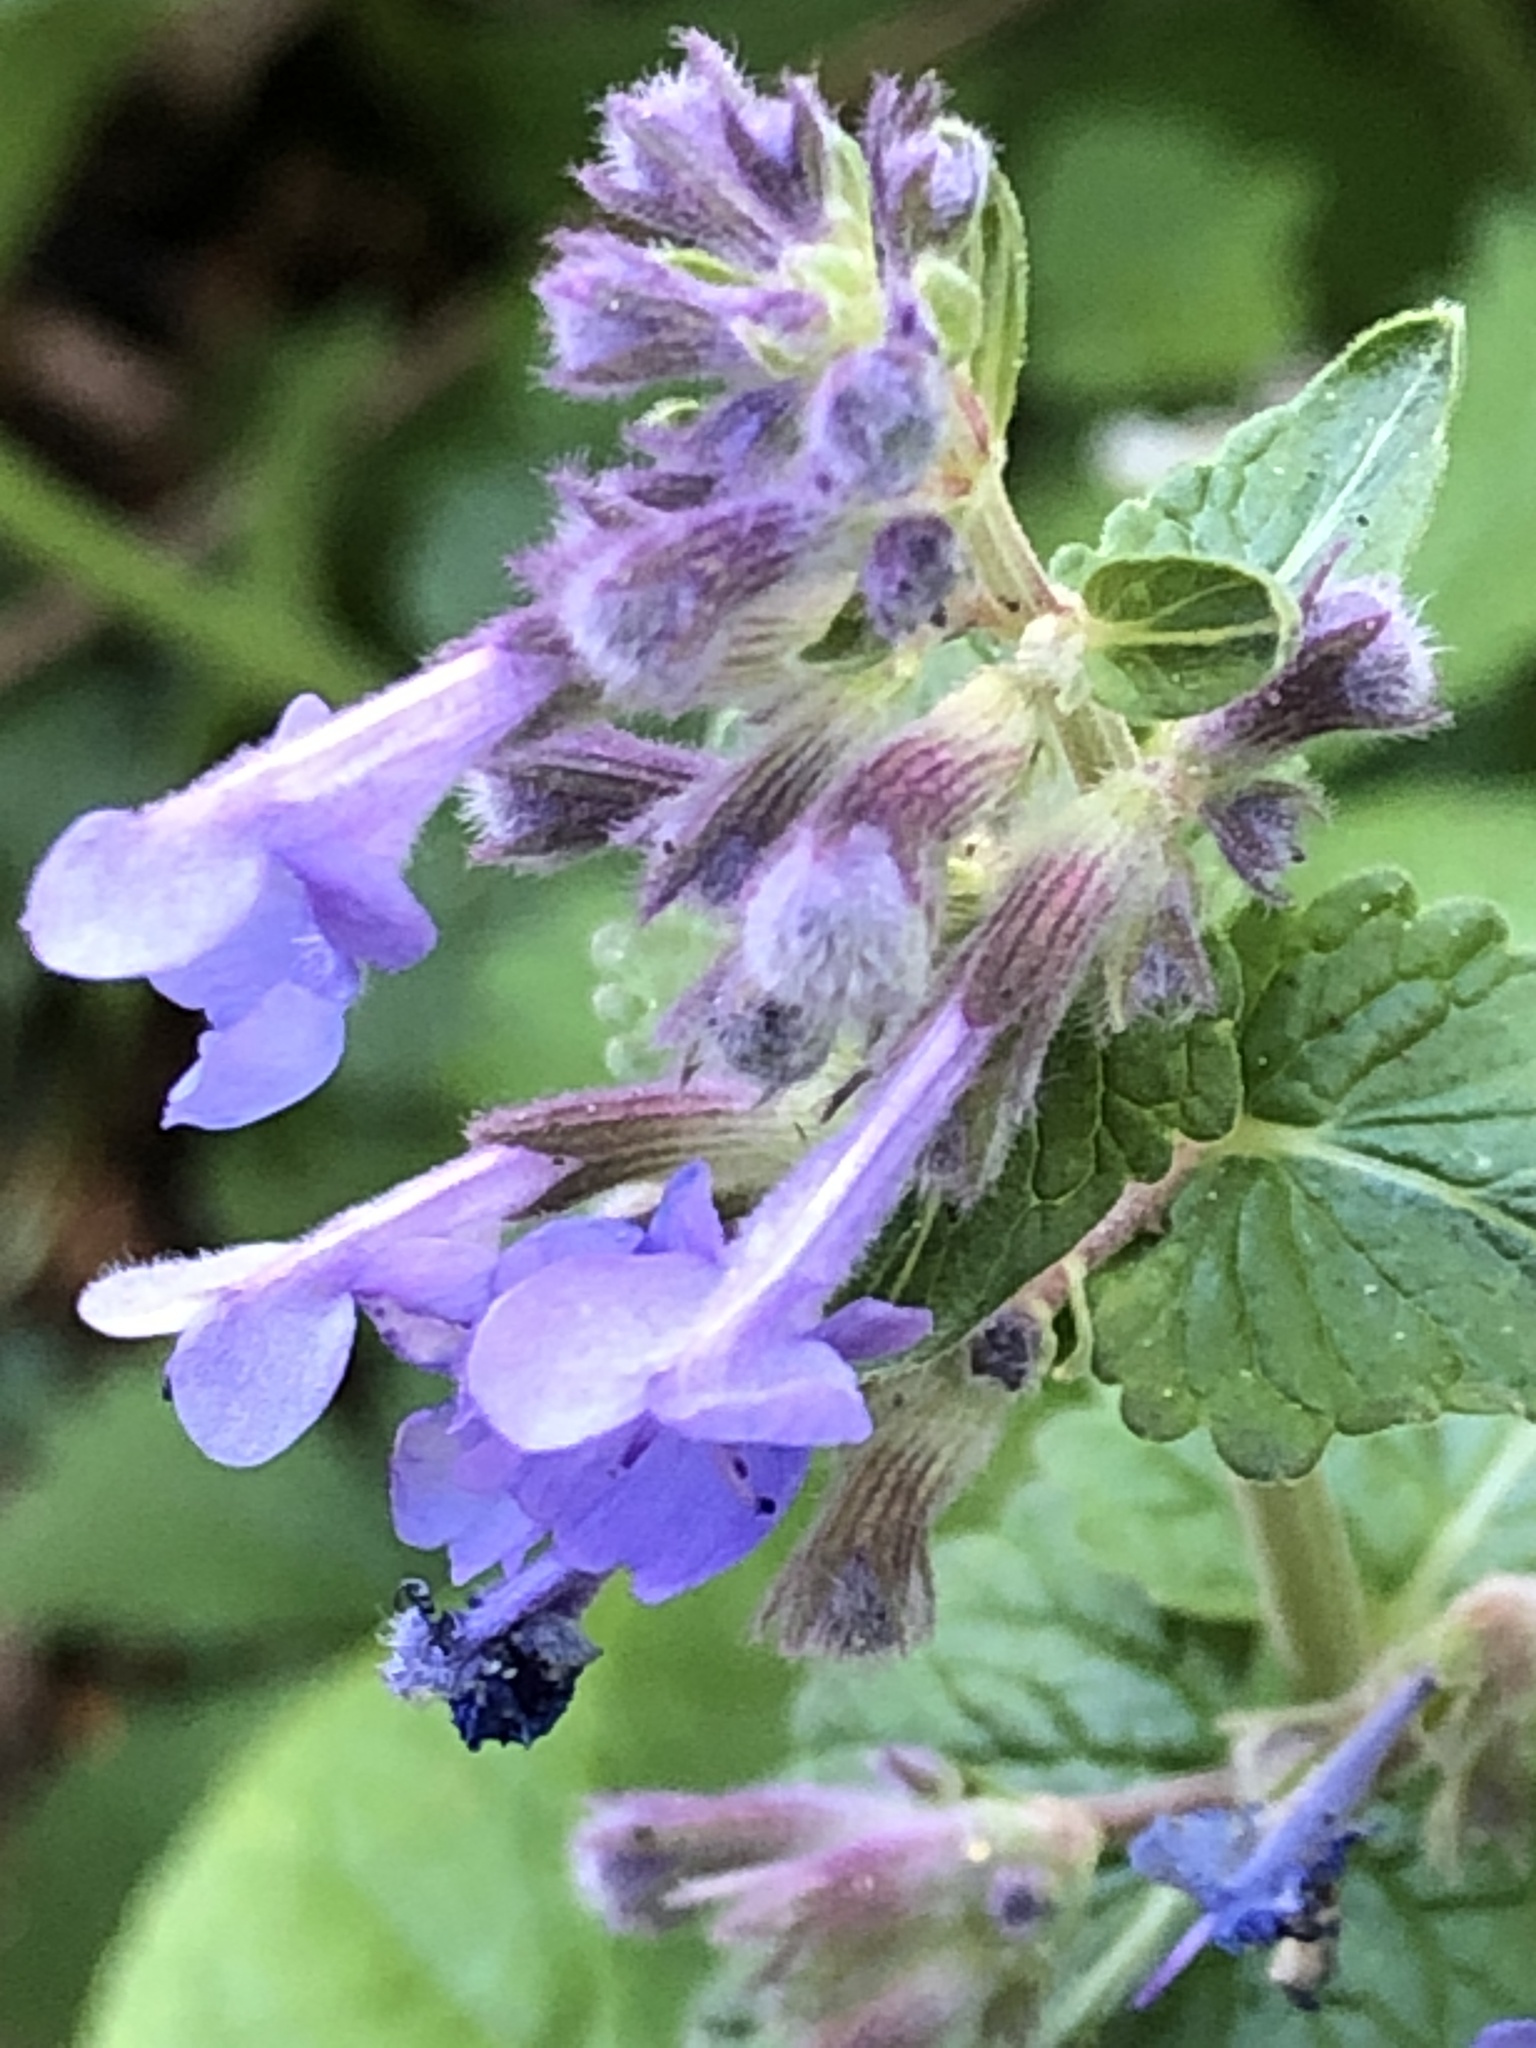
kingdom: Plantae
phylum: Tracheophyta
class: Magnoliopsida
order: Lamiales
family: Lamiaceae
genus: Glechoma
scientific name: Glechoma hederacea
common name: Ground ivy
